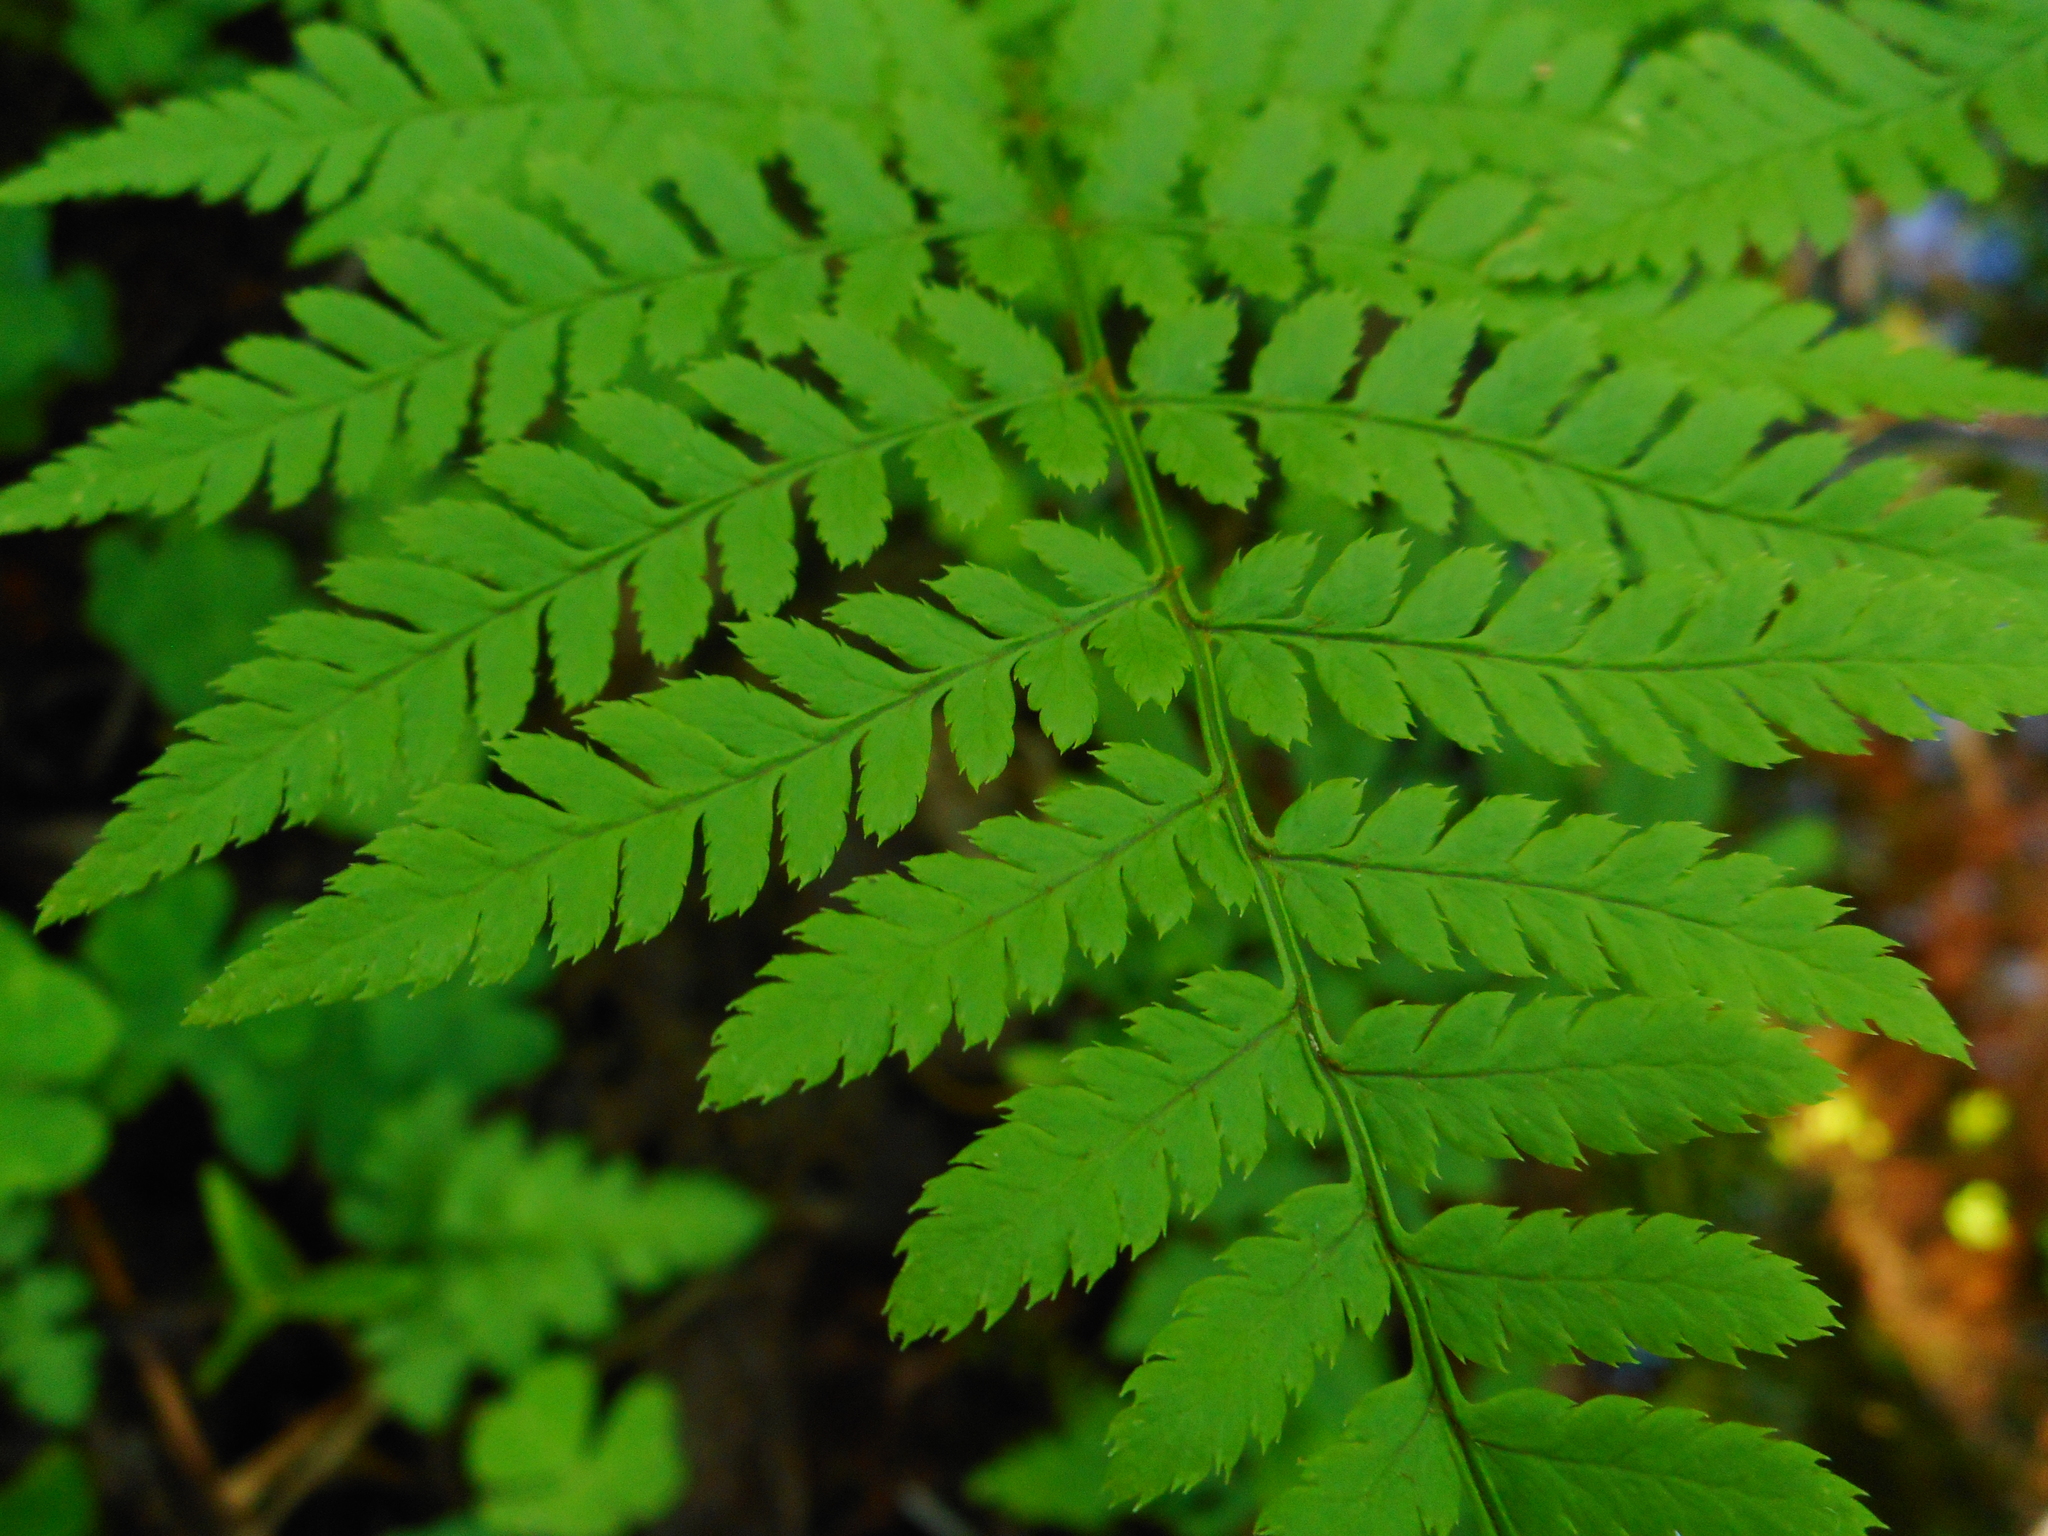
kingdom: Plantae
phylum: Tracheophyta
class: Polypodiopsida
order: Polypodiales
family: Dryopteridaceae
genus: Dryopteris
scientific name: Dryopteris expansa
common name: Northern buckler fern
